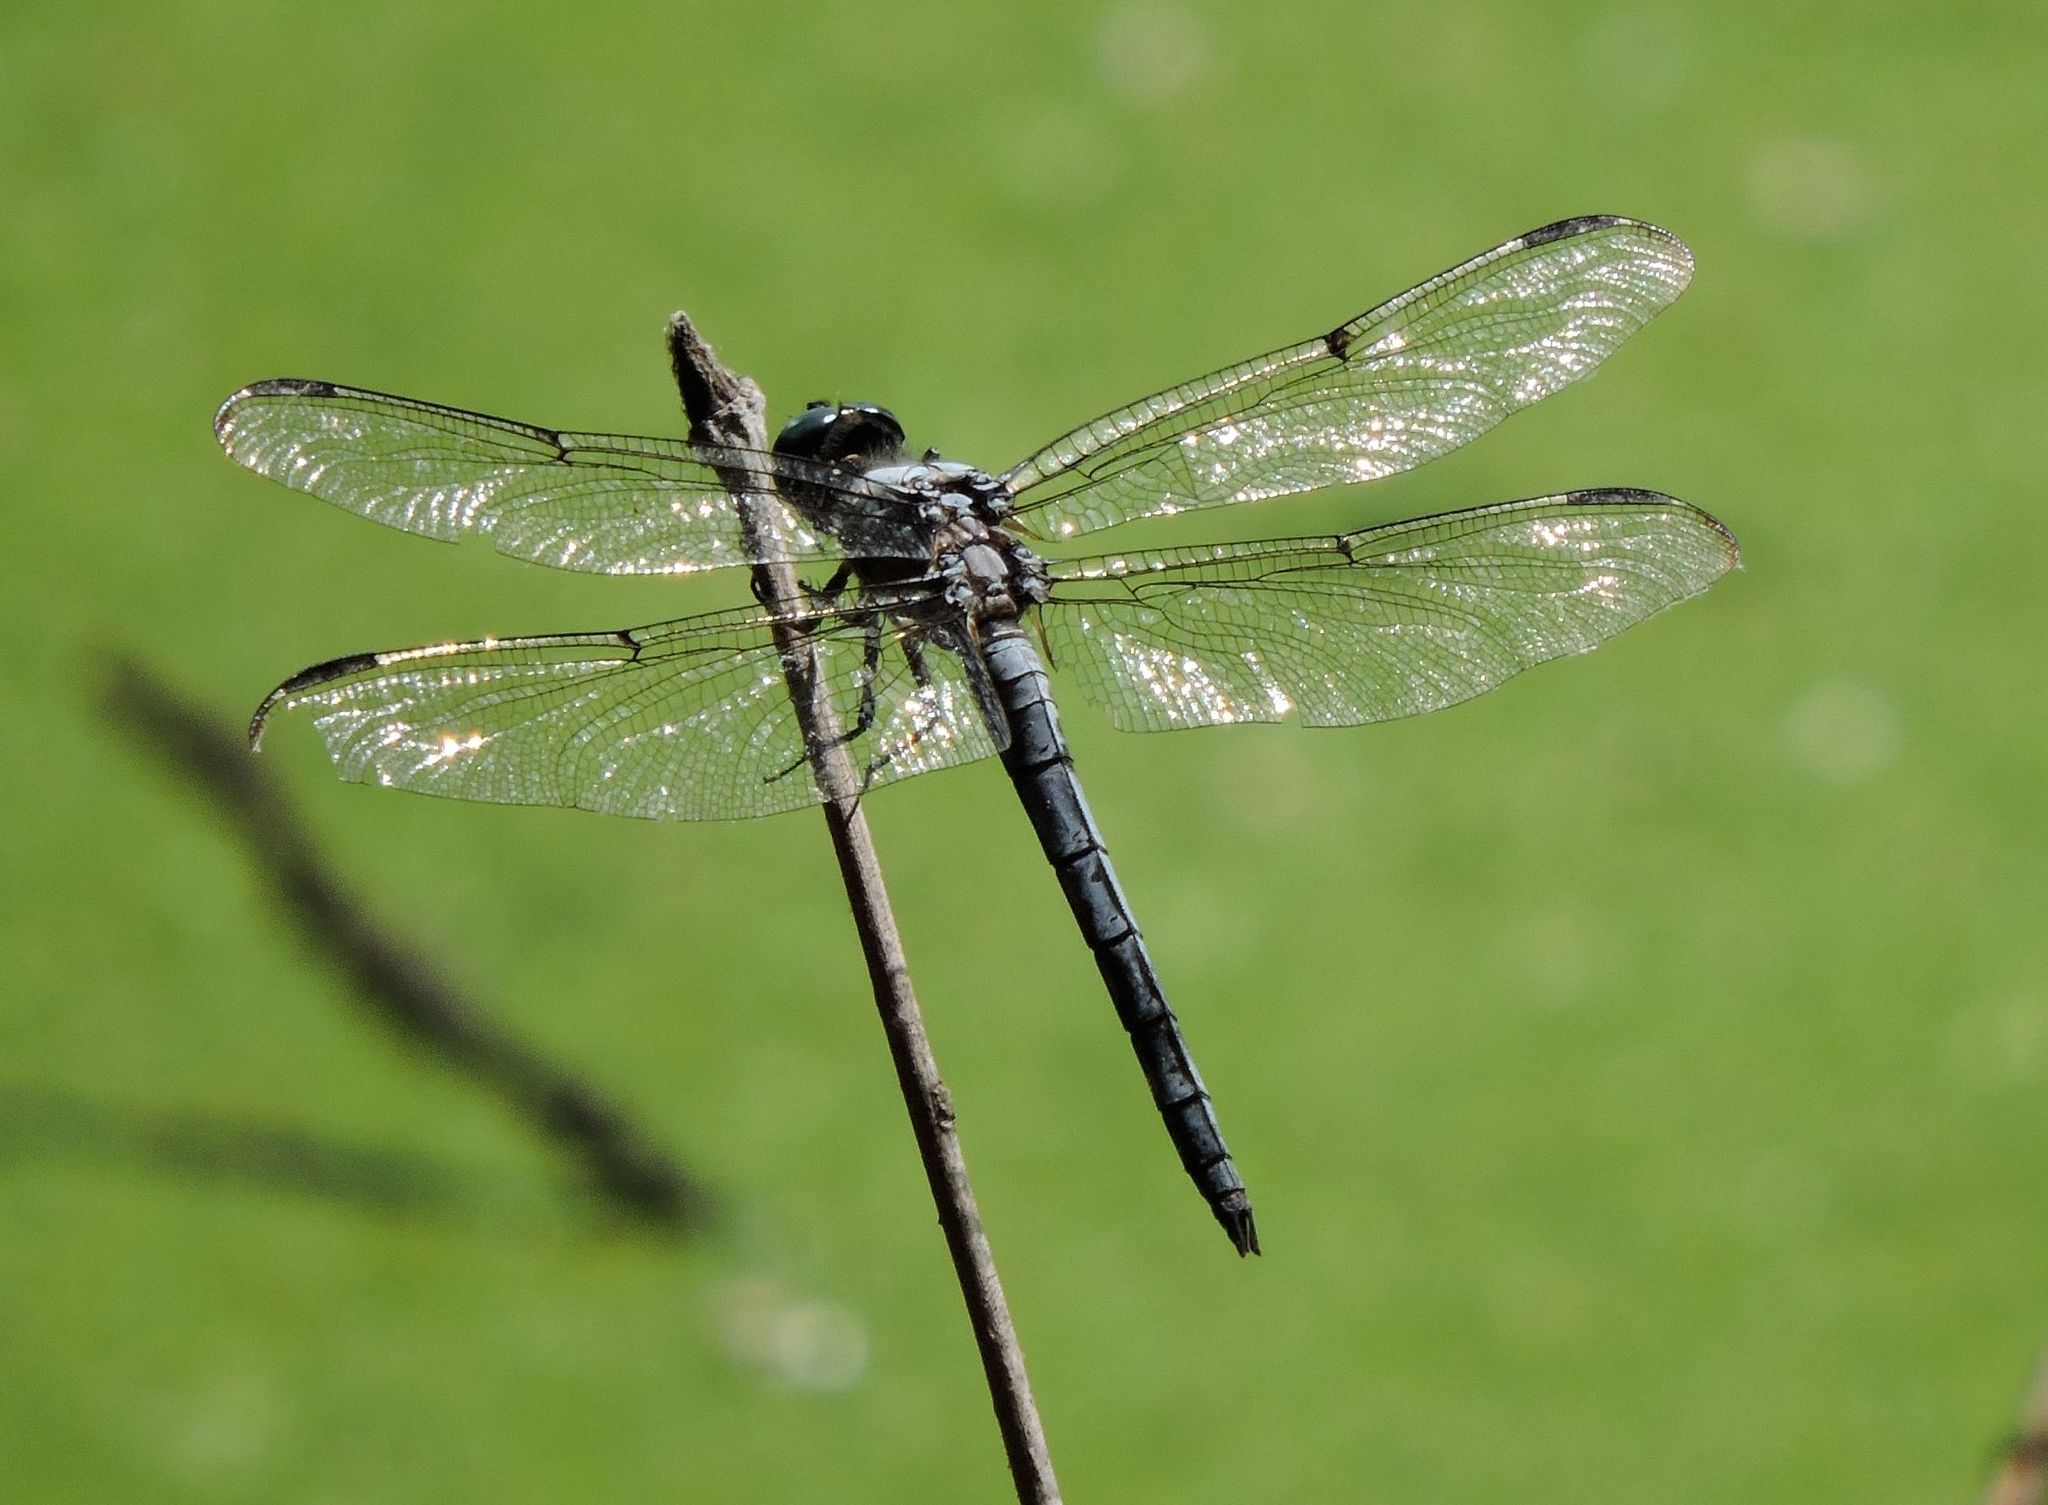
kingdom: Animalia
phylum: Arthropoda
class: Insecta
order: Odonata
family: Libellulidae
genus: Libellula
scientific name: Libellula vibrans
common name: Great blue skimmer
